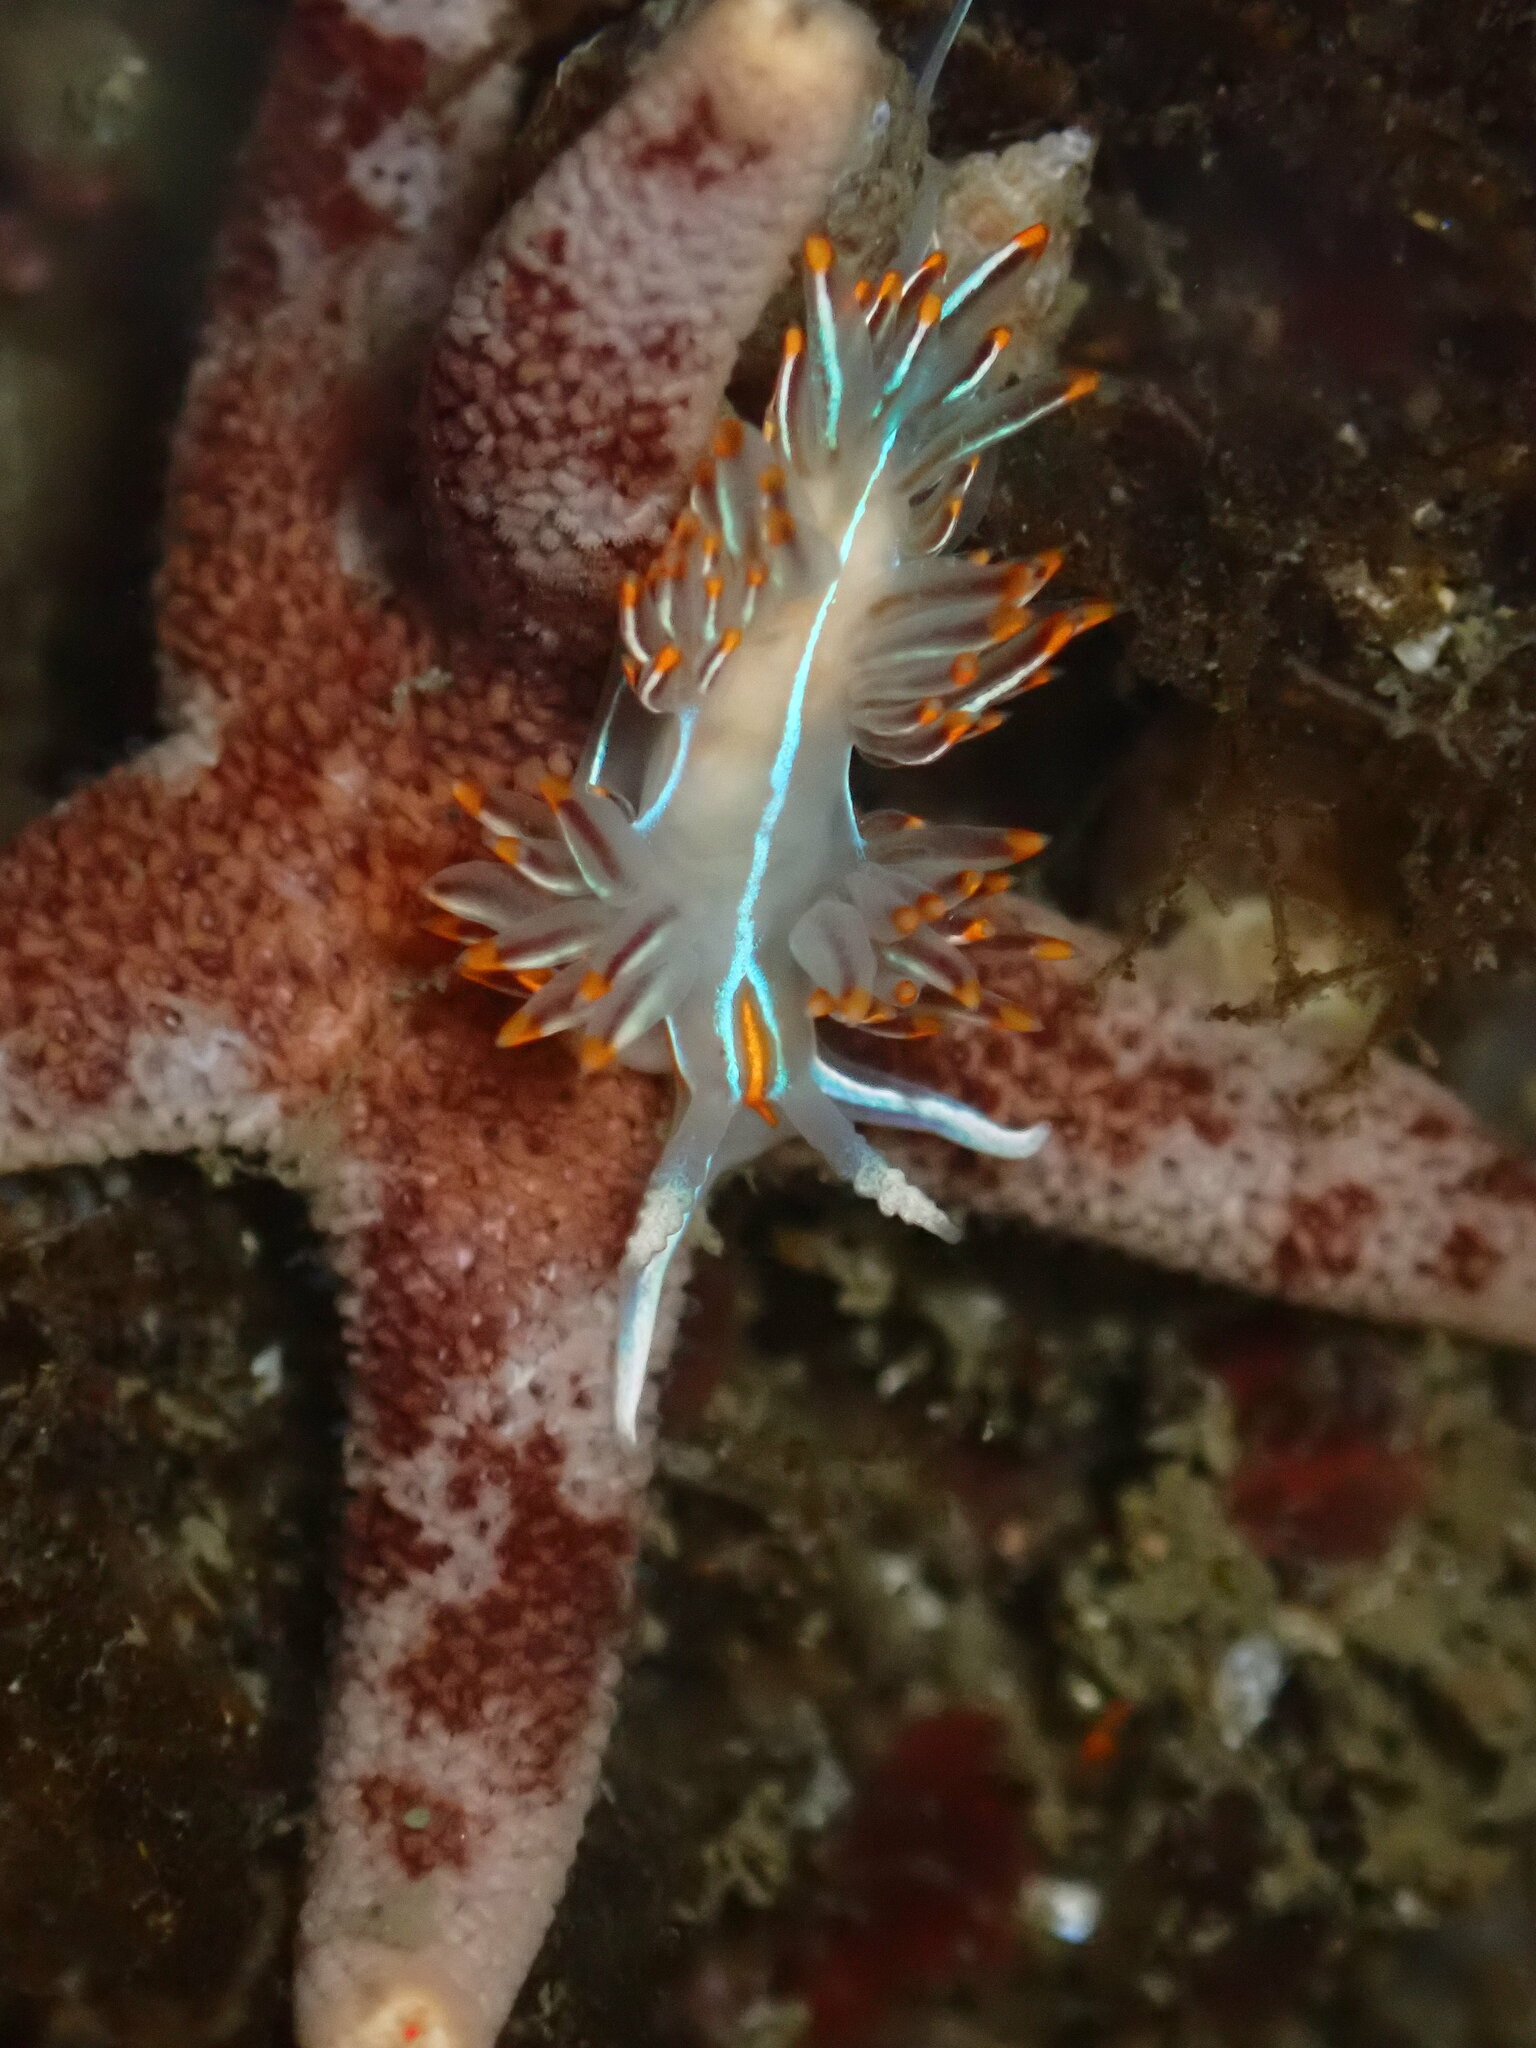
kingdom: Animalia
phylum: Mollusca
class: Gastropoda
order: Nudibranchia
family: Myrrhinidae
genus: Hermissenda
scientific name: Hermissenda crassicornis
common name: Hermissenda
